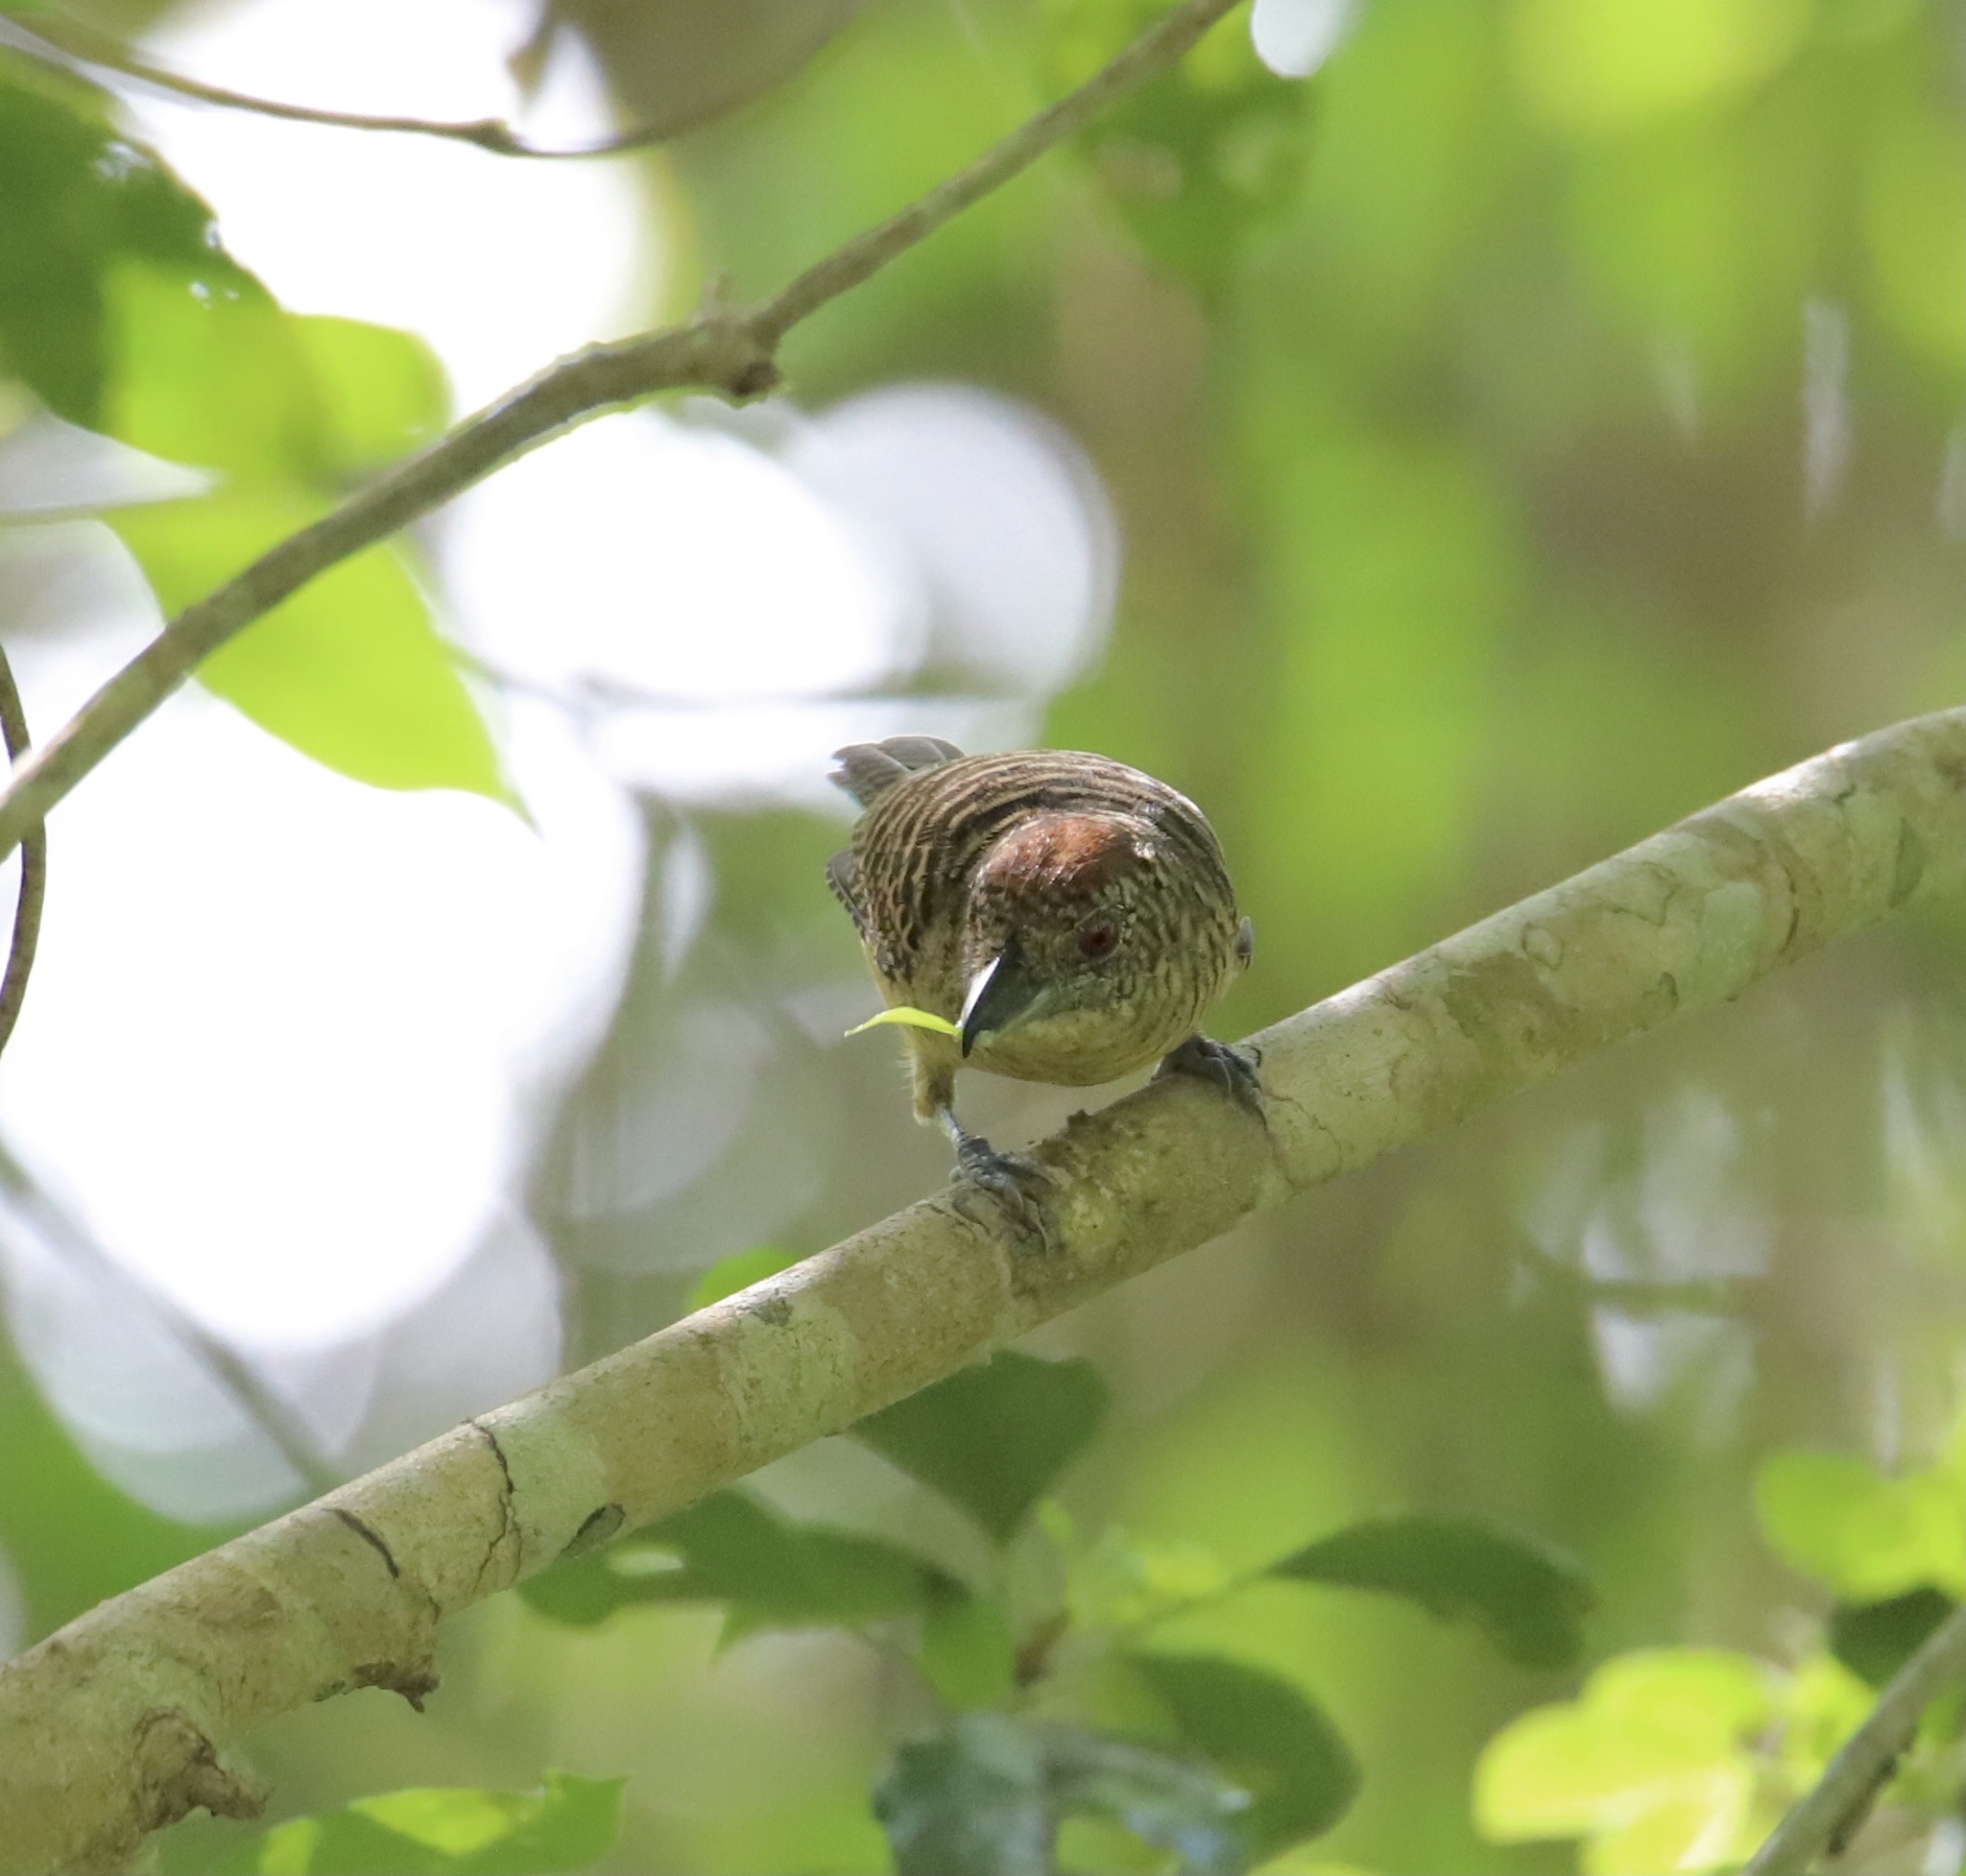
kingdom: Animalia
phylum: Chordata
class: Aves
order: Passeriformes
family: Thamnophilidae
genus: Cymbilaimus
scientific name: Cymbilaimus lineatus
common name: Fasciated antshrike
